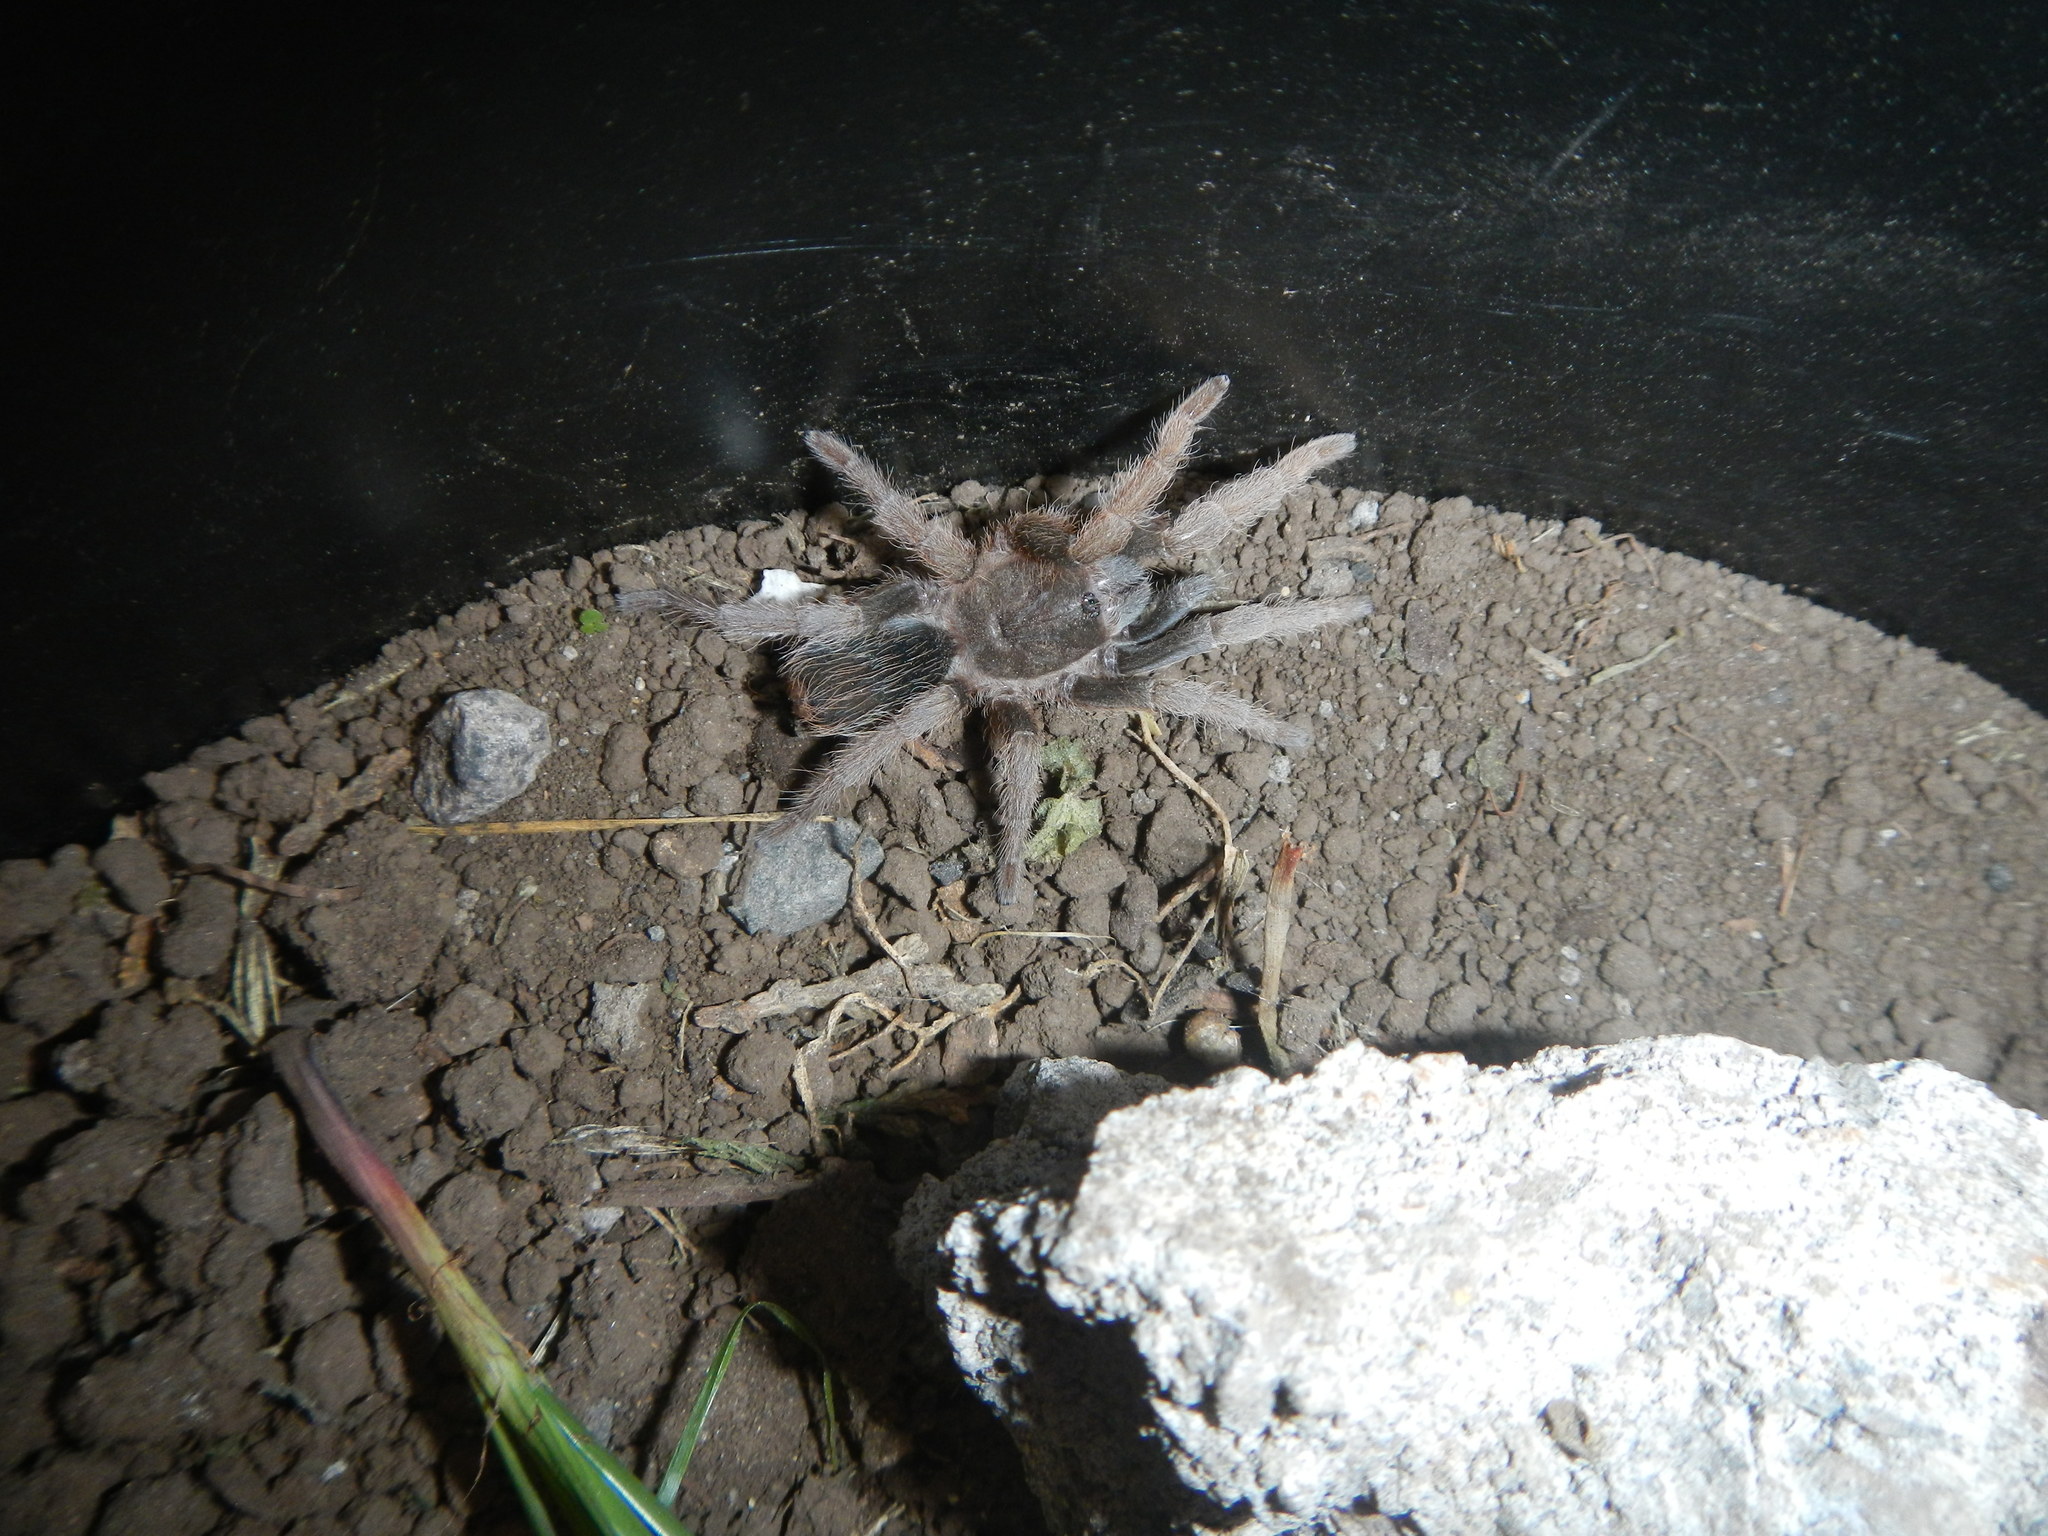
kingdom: Animalia
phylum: Arthropoda
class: Arachnida
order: Araneae
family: Theraphosidae
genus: Aphonopelma
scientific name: Aphonopelma belindae
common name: Tarantula spiders
